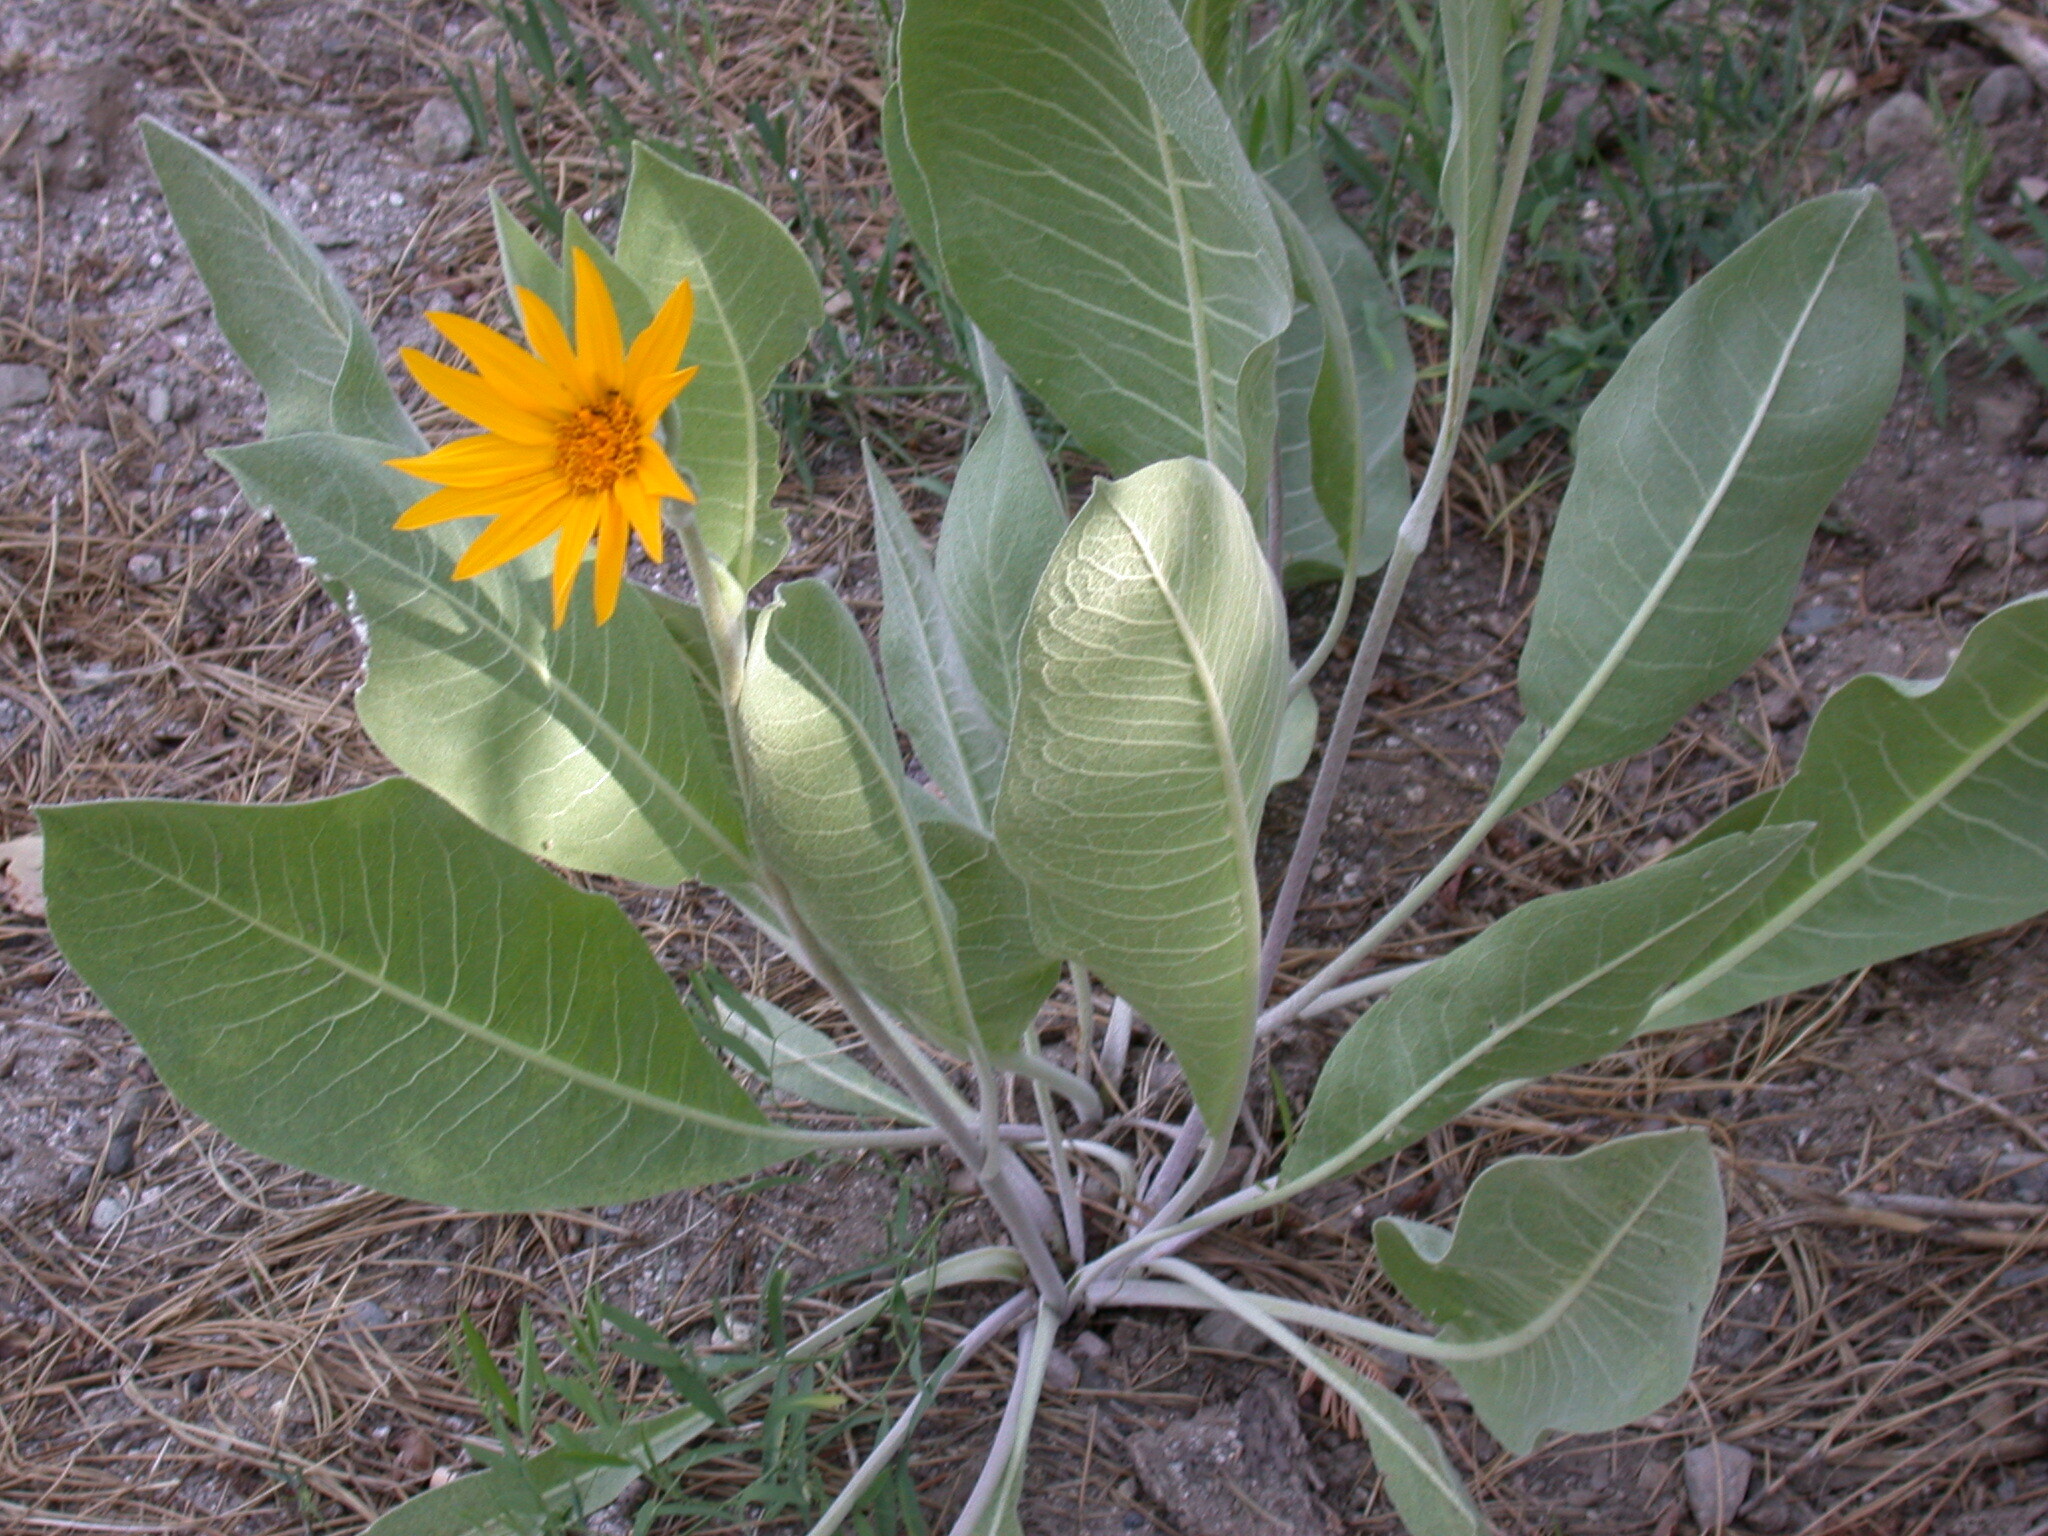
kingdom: Plantae
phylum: Tracheophyta
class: Magnoliopsida
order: Asterales
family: Asteraceae
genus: Wyethia
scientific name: Wyethia mollis
